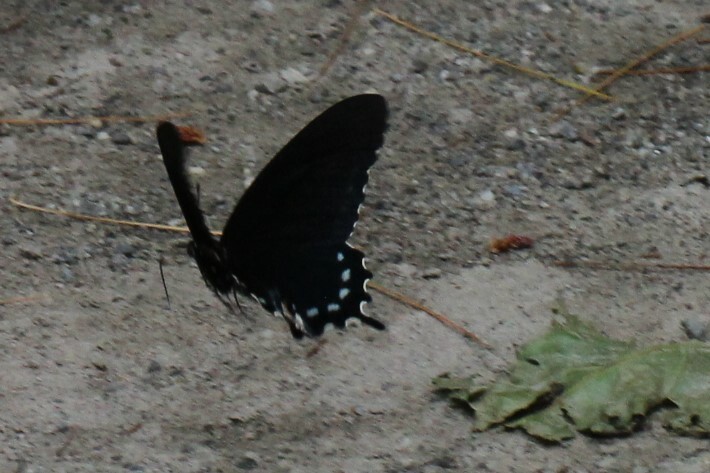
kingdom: Animalia
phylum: Arthropoda
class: Insecta
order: Lepidoptera
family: Papilionidae
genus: Battus
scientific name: Battus philenor
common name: Pipevine swallowtail
